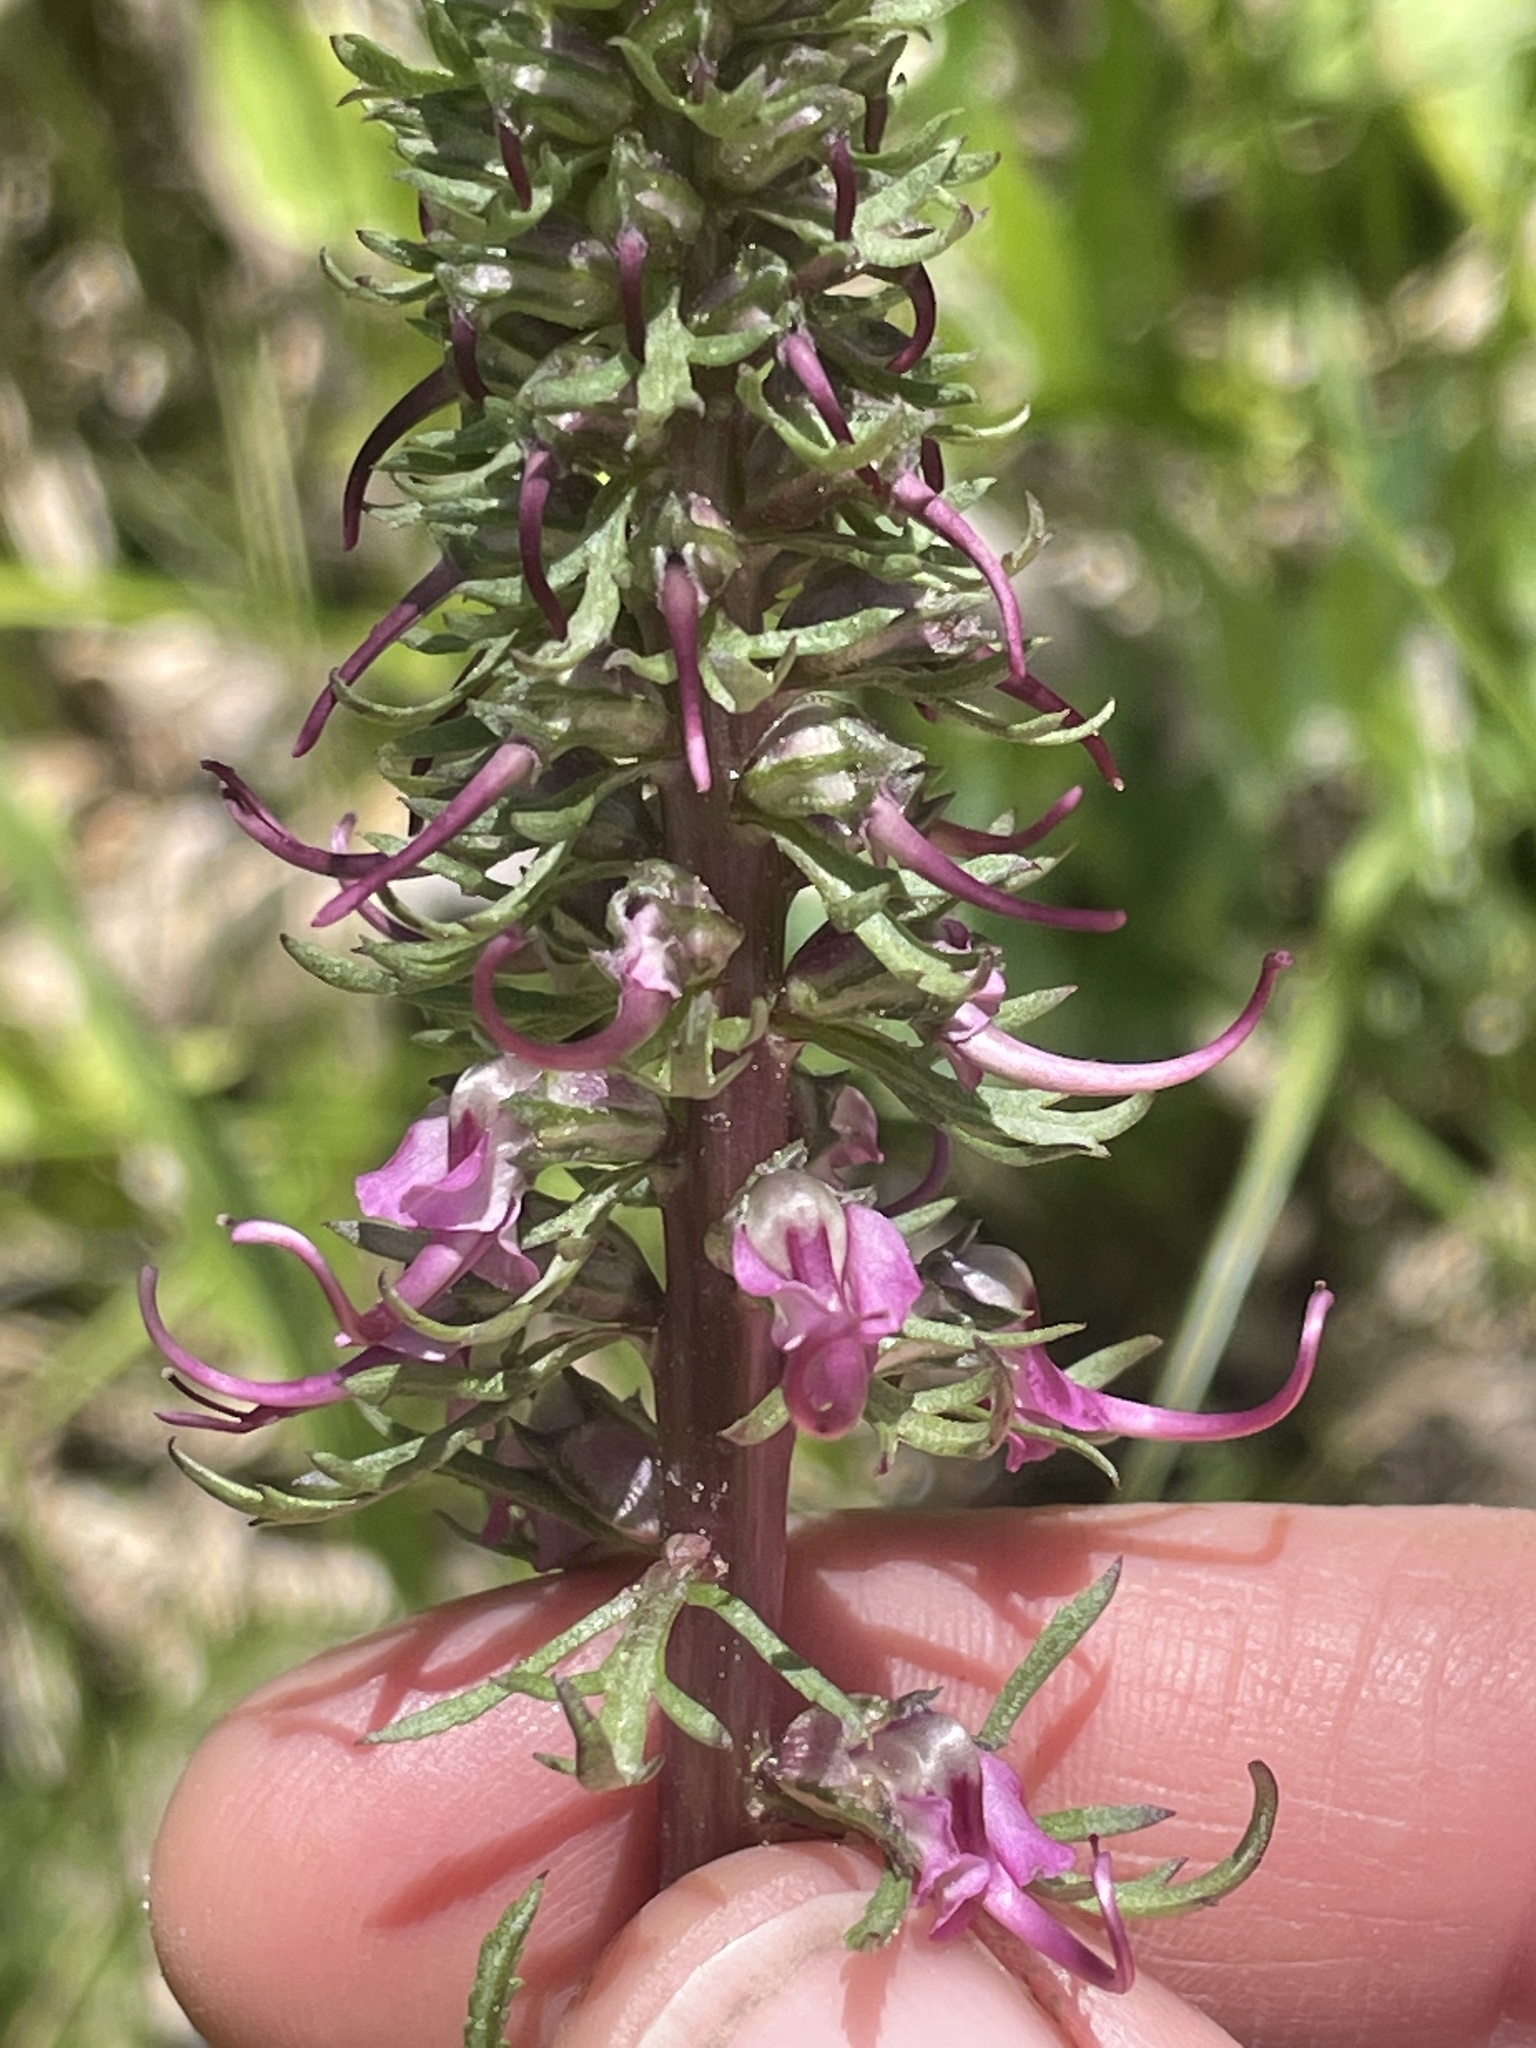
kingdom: Plantae
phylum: Tracheophyta
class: Magnoliopsida
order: Lamiales
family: Orobanchaceae
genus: Pedicularis
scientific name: Pedicularis groenlandica
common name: Elephant's-head
